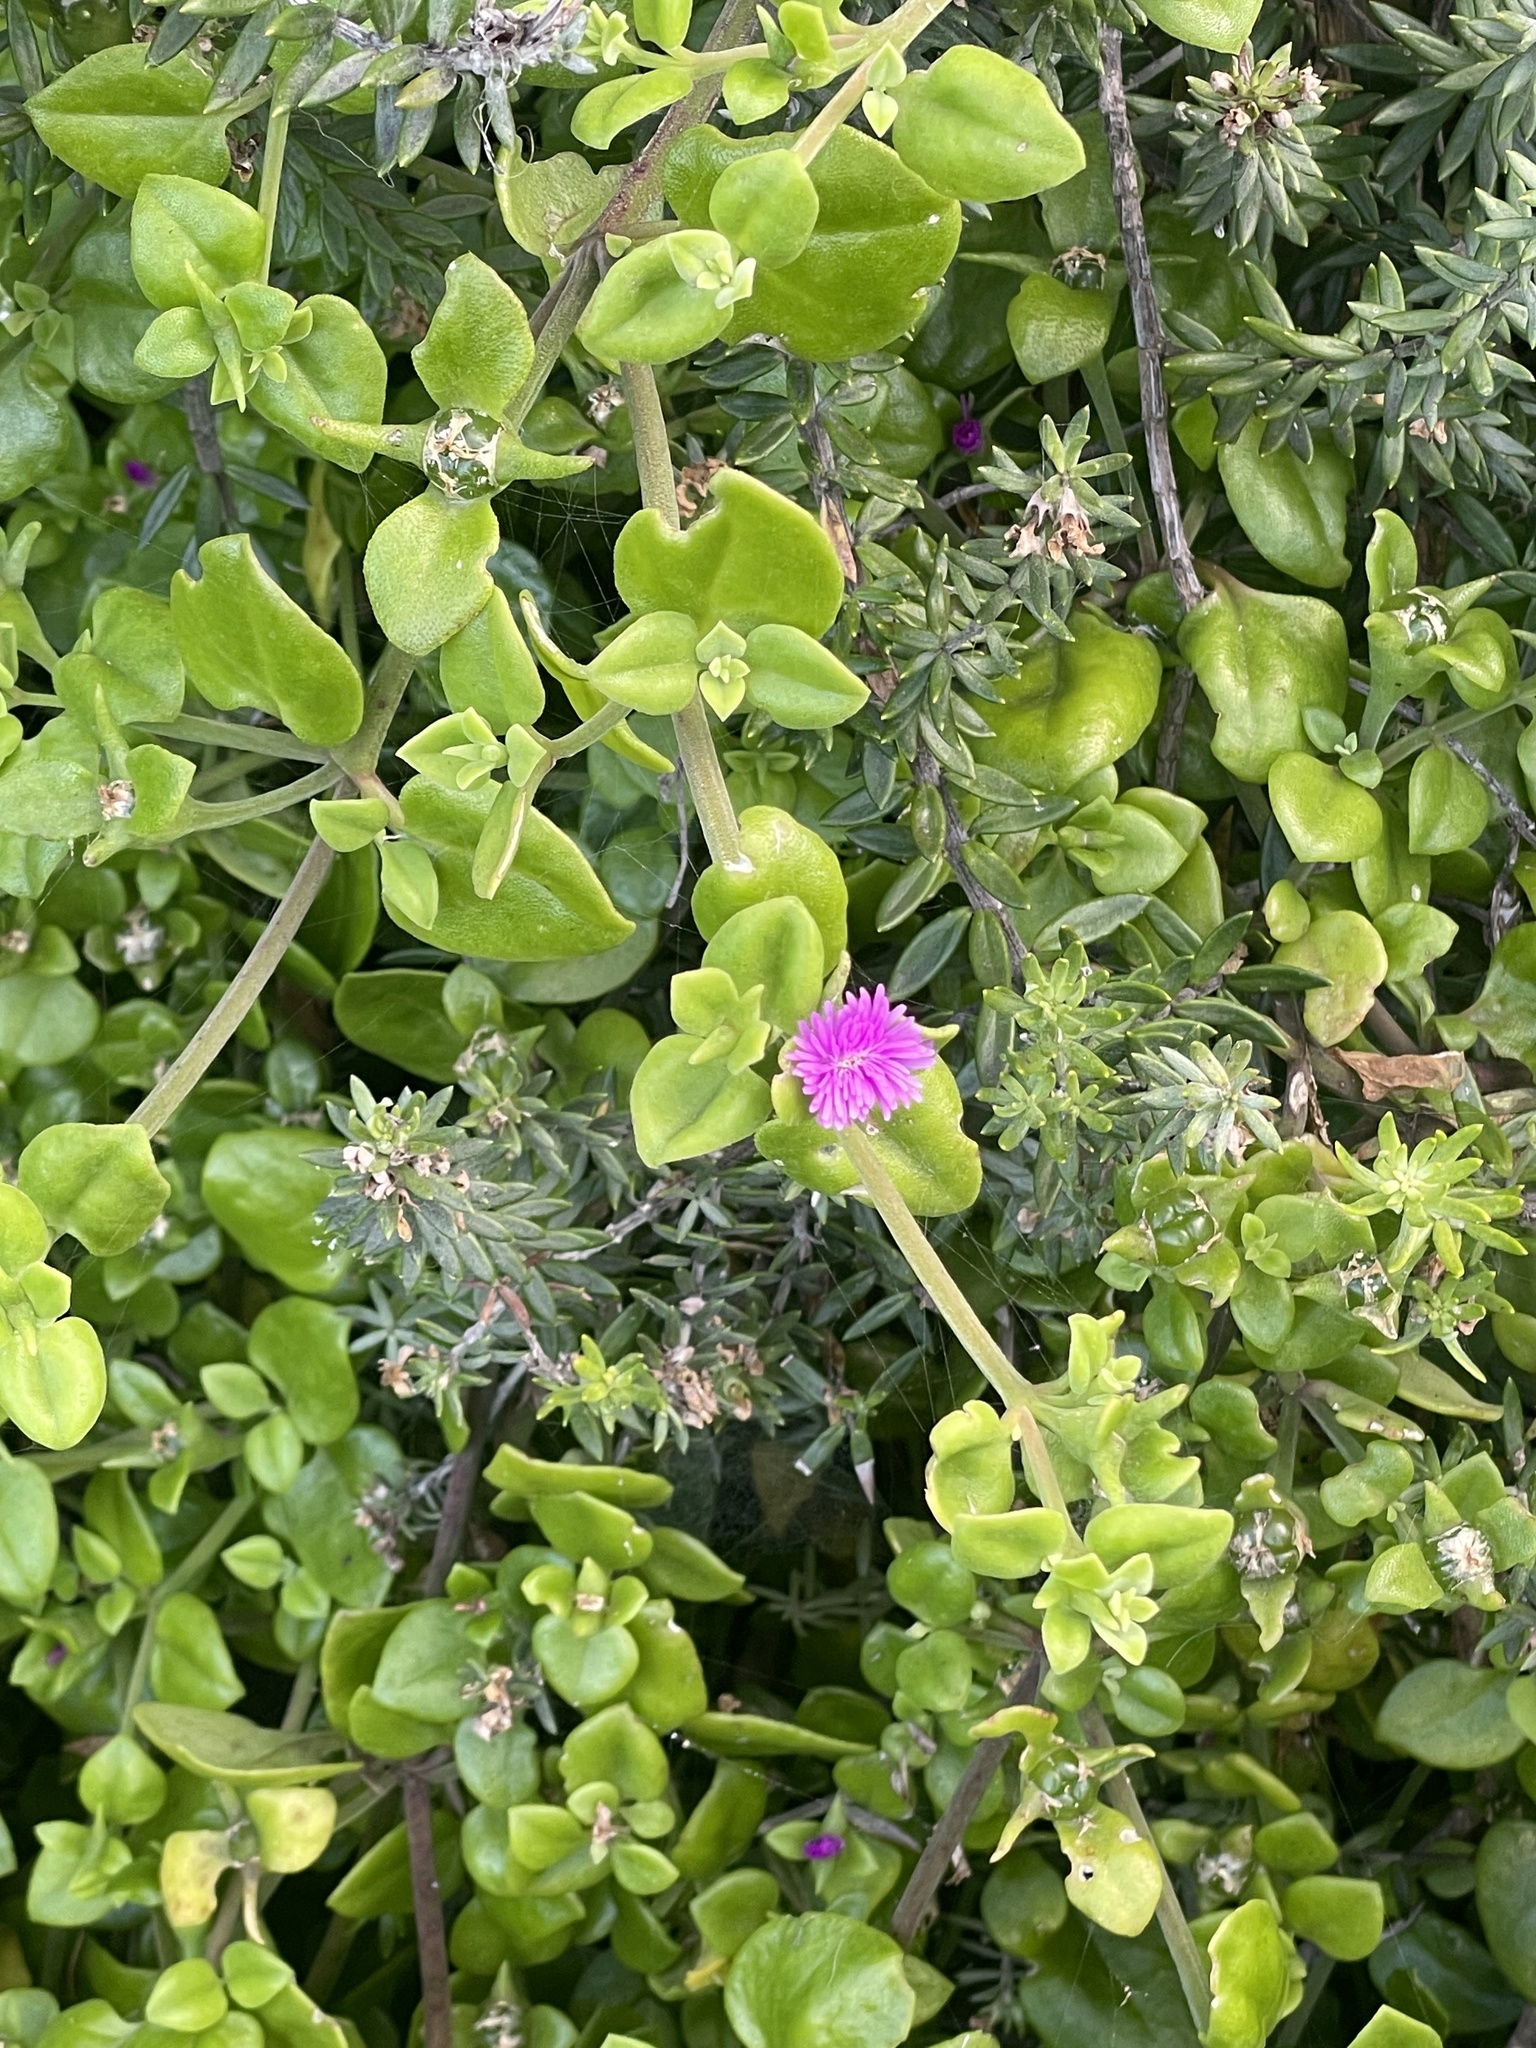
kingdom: Plantae
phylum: Tracheophyta
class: Magnoliopsida
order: Caryophyllales
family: Aizoaceae
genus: Mesembryanthemum
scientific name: Mesembryanthemum cordifolium
